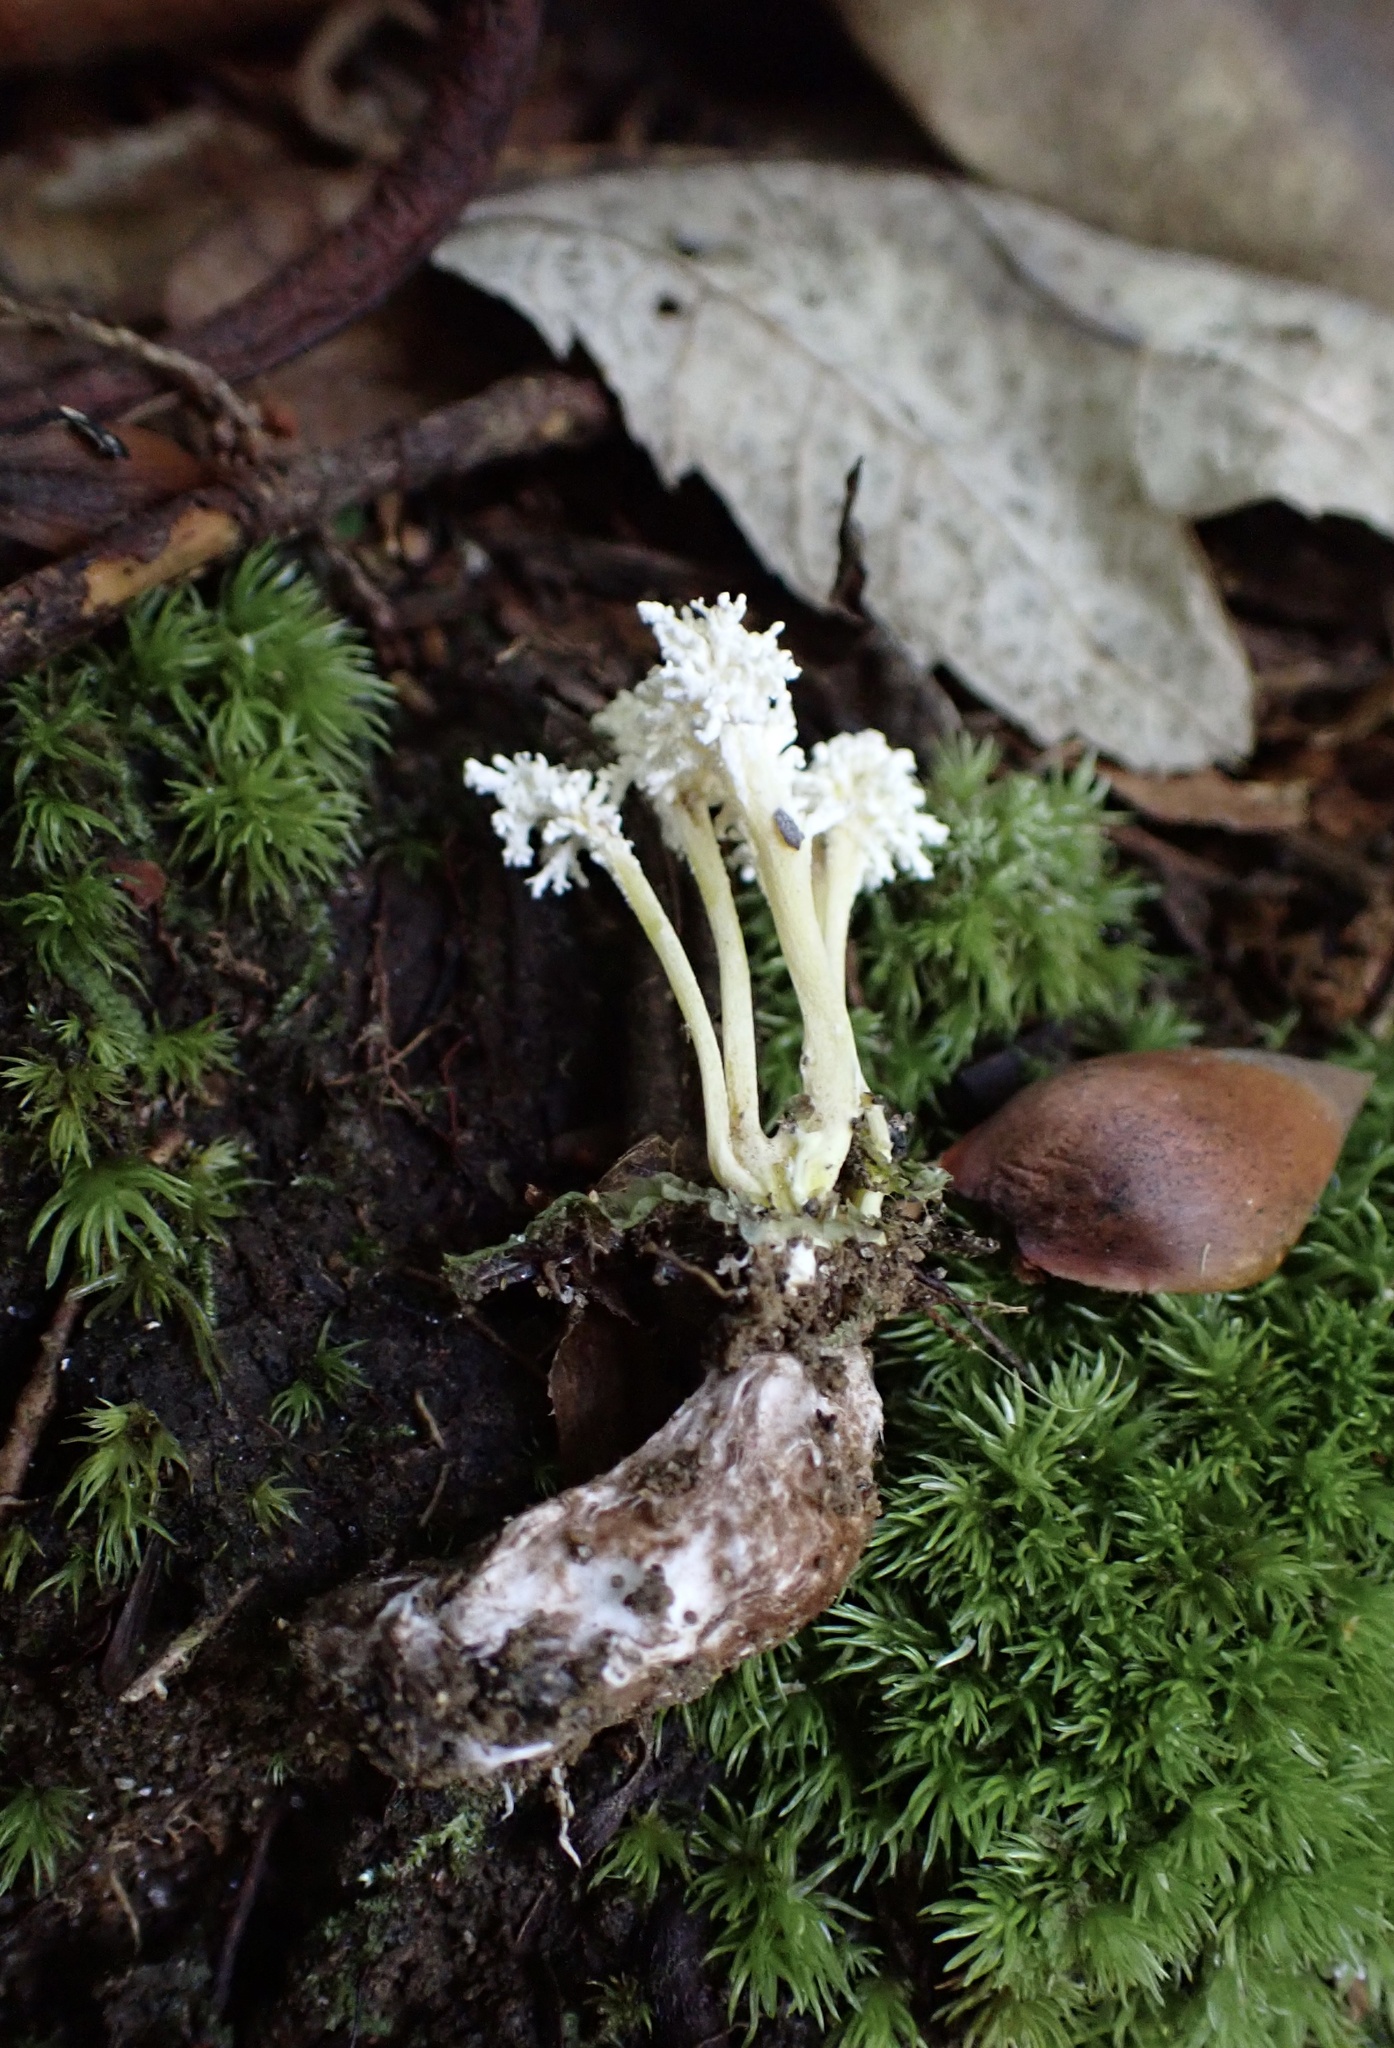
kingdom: Fungi
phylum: Ascomycota
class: Sordariomycetes
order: Hypocreales
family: Cordycipitaceae
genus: Cordyceps
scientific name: Cordyceps tenuipes
